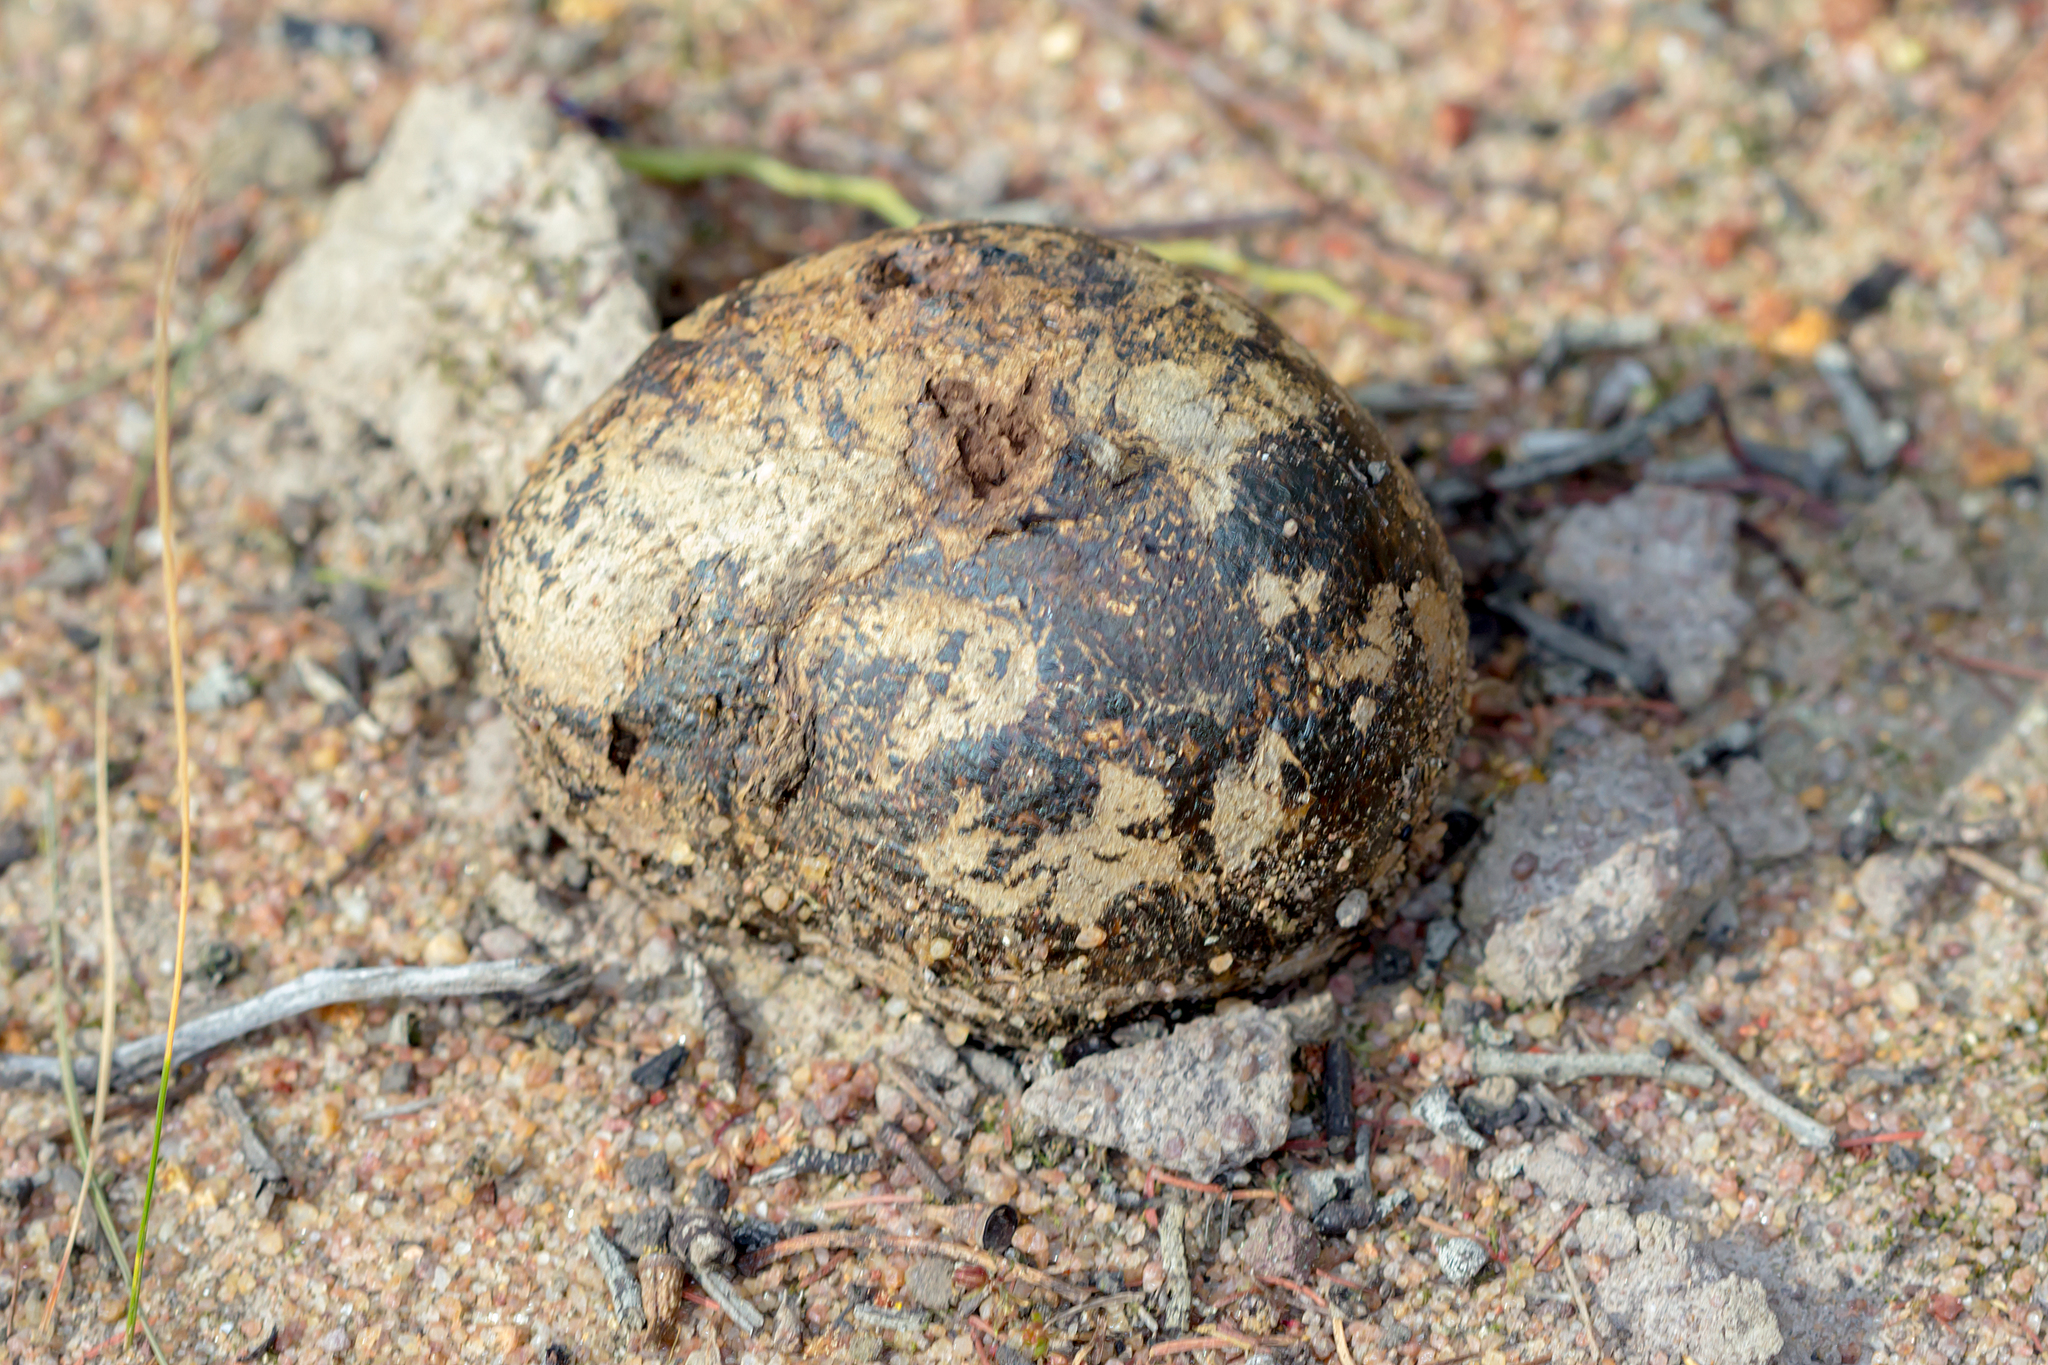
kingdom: Fungi
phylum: Basidiomycota
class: Agaricomycetes
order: Boletales
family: Sclerodermataceae
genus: Pisolithus
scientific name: Pisolithus arhizus
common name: Dyeball
